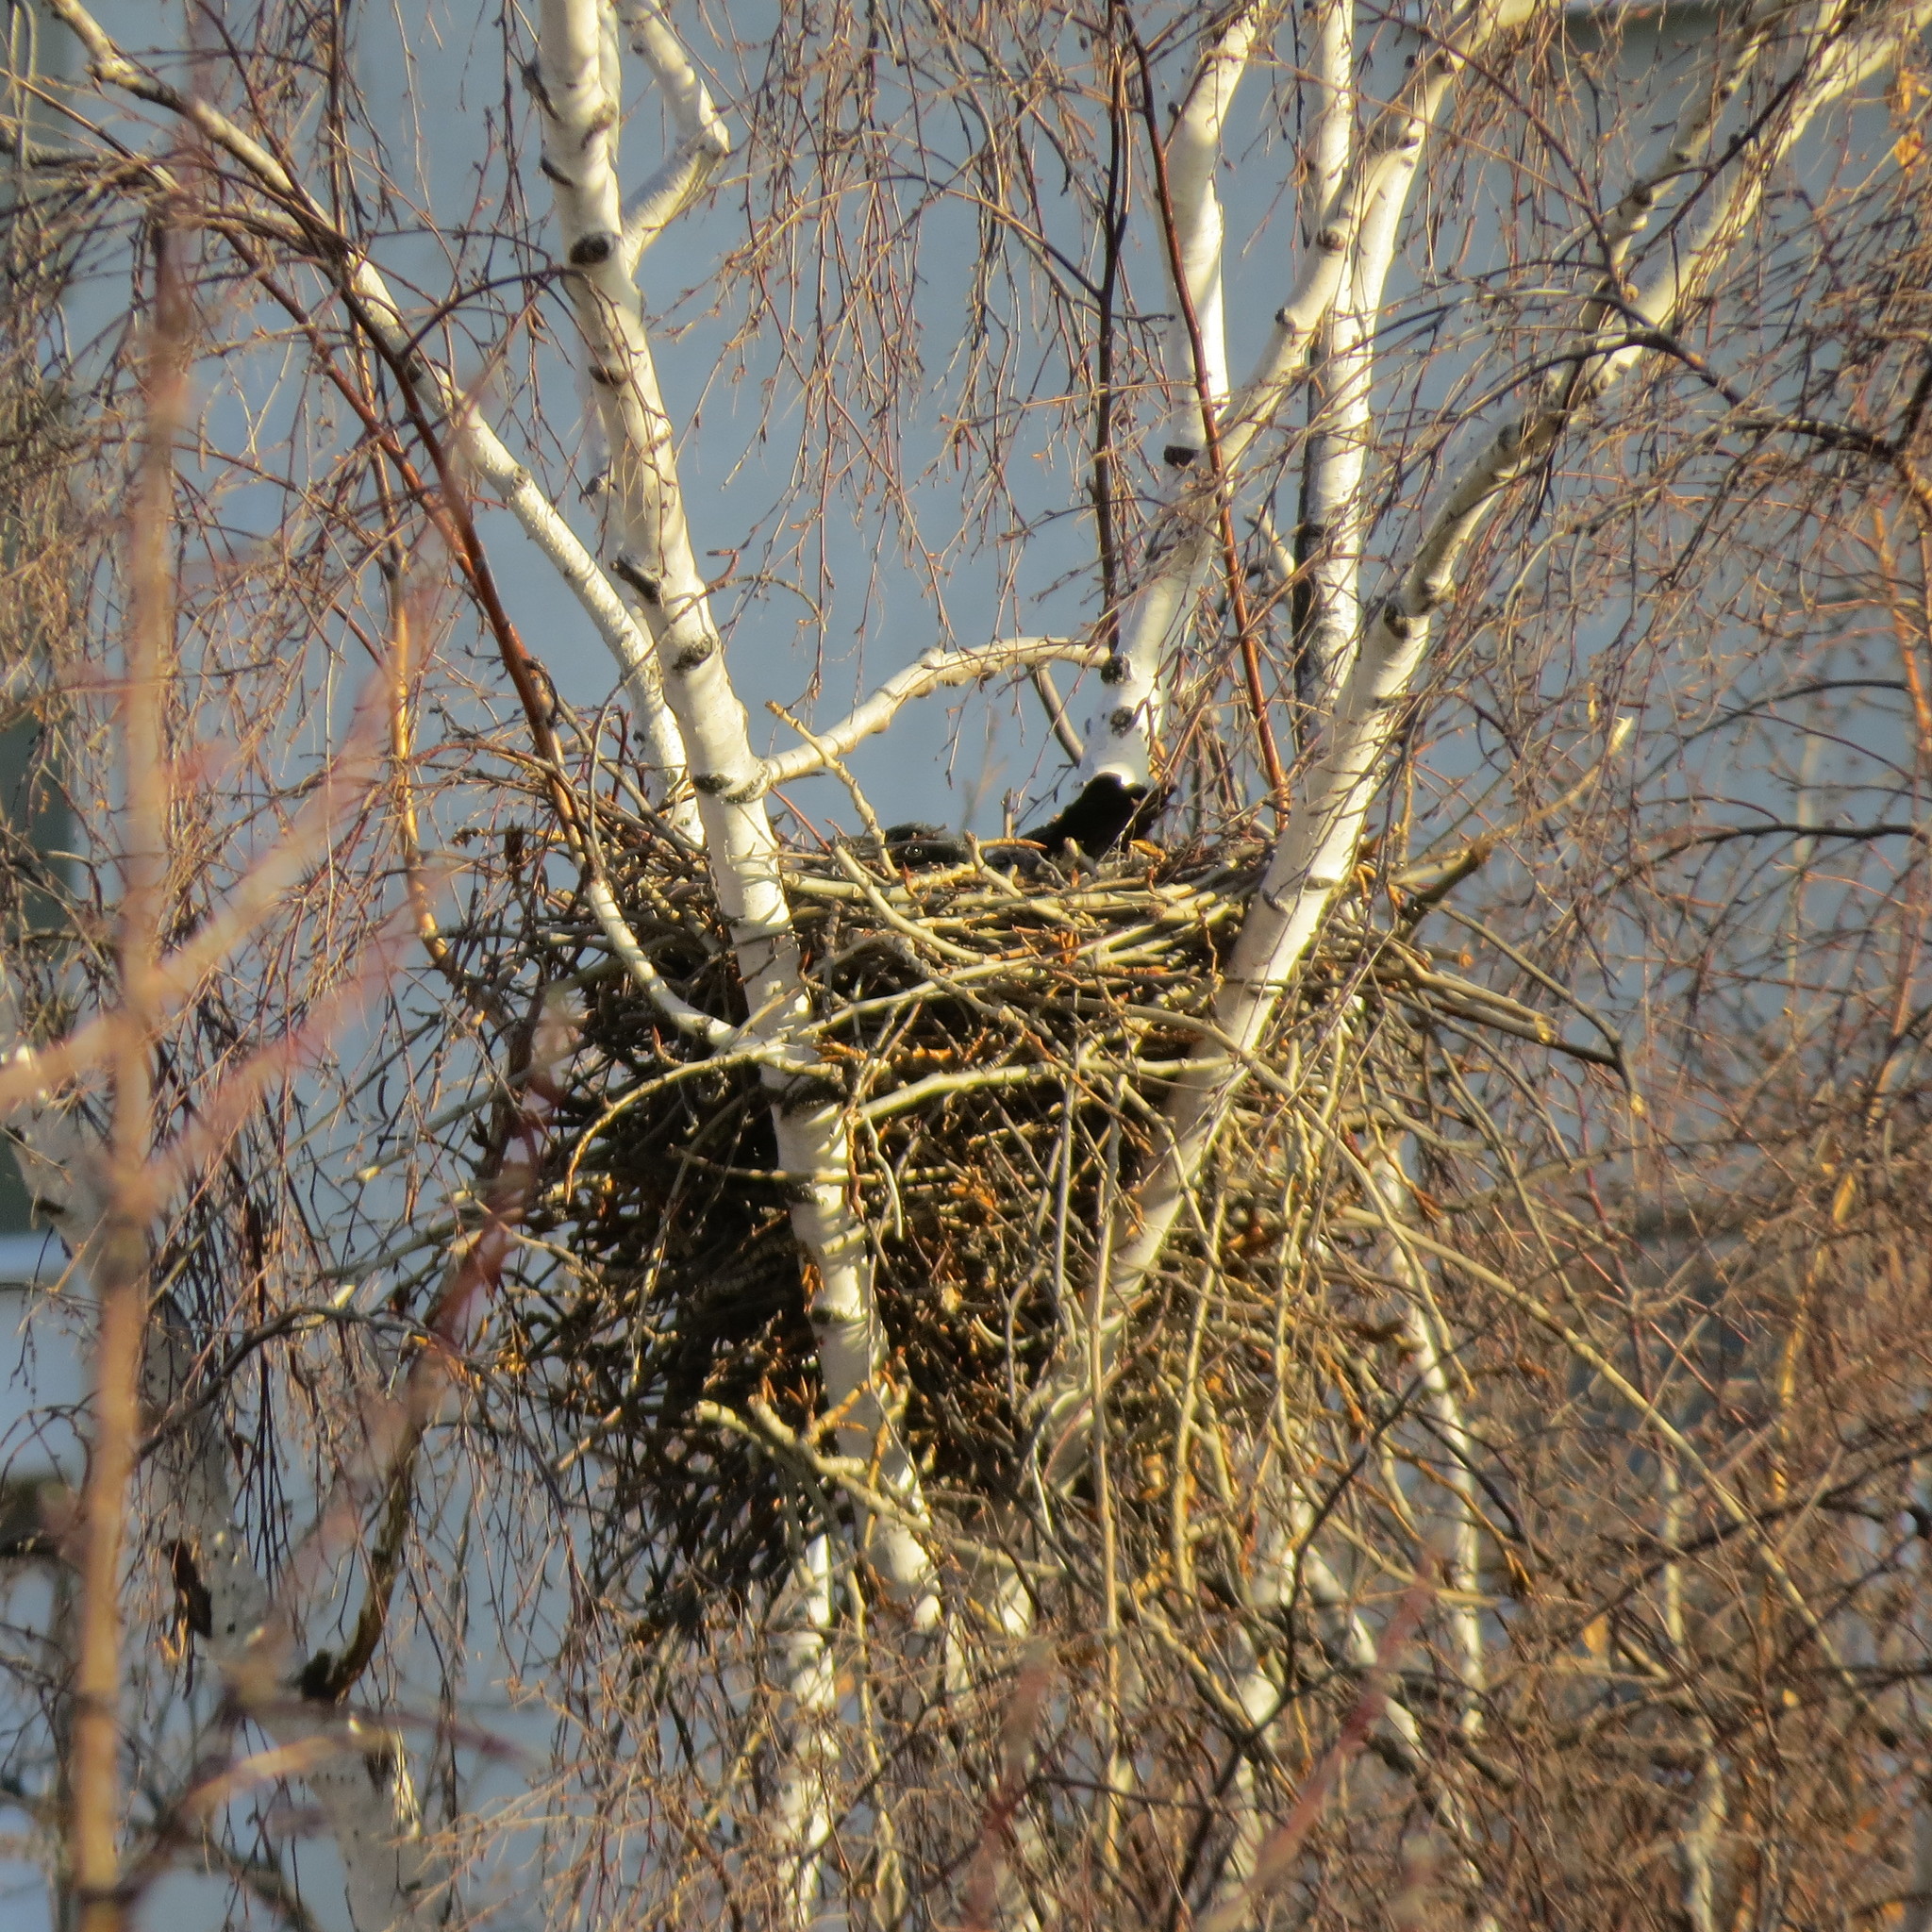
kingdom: Animalia
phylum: Chordata
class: Aves
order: Passeriformes
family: Corvidae
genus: Corvus
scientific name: Corvus cornix
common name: Hooded crow
